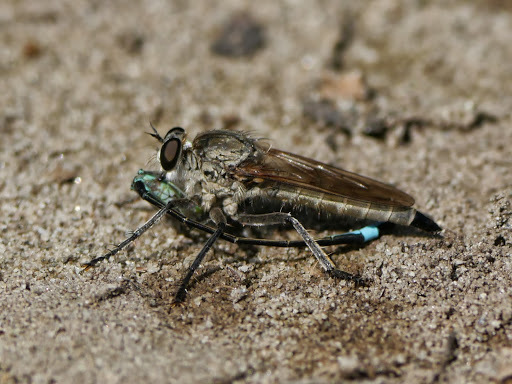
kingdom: Animalia
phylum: Arthropoda
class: Insecta
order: Diptera
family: Asilidae
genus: Philonicus
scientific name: Philonicus albiceps
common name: Dune robberfly
